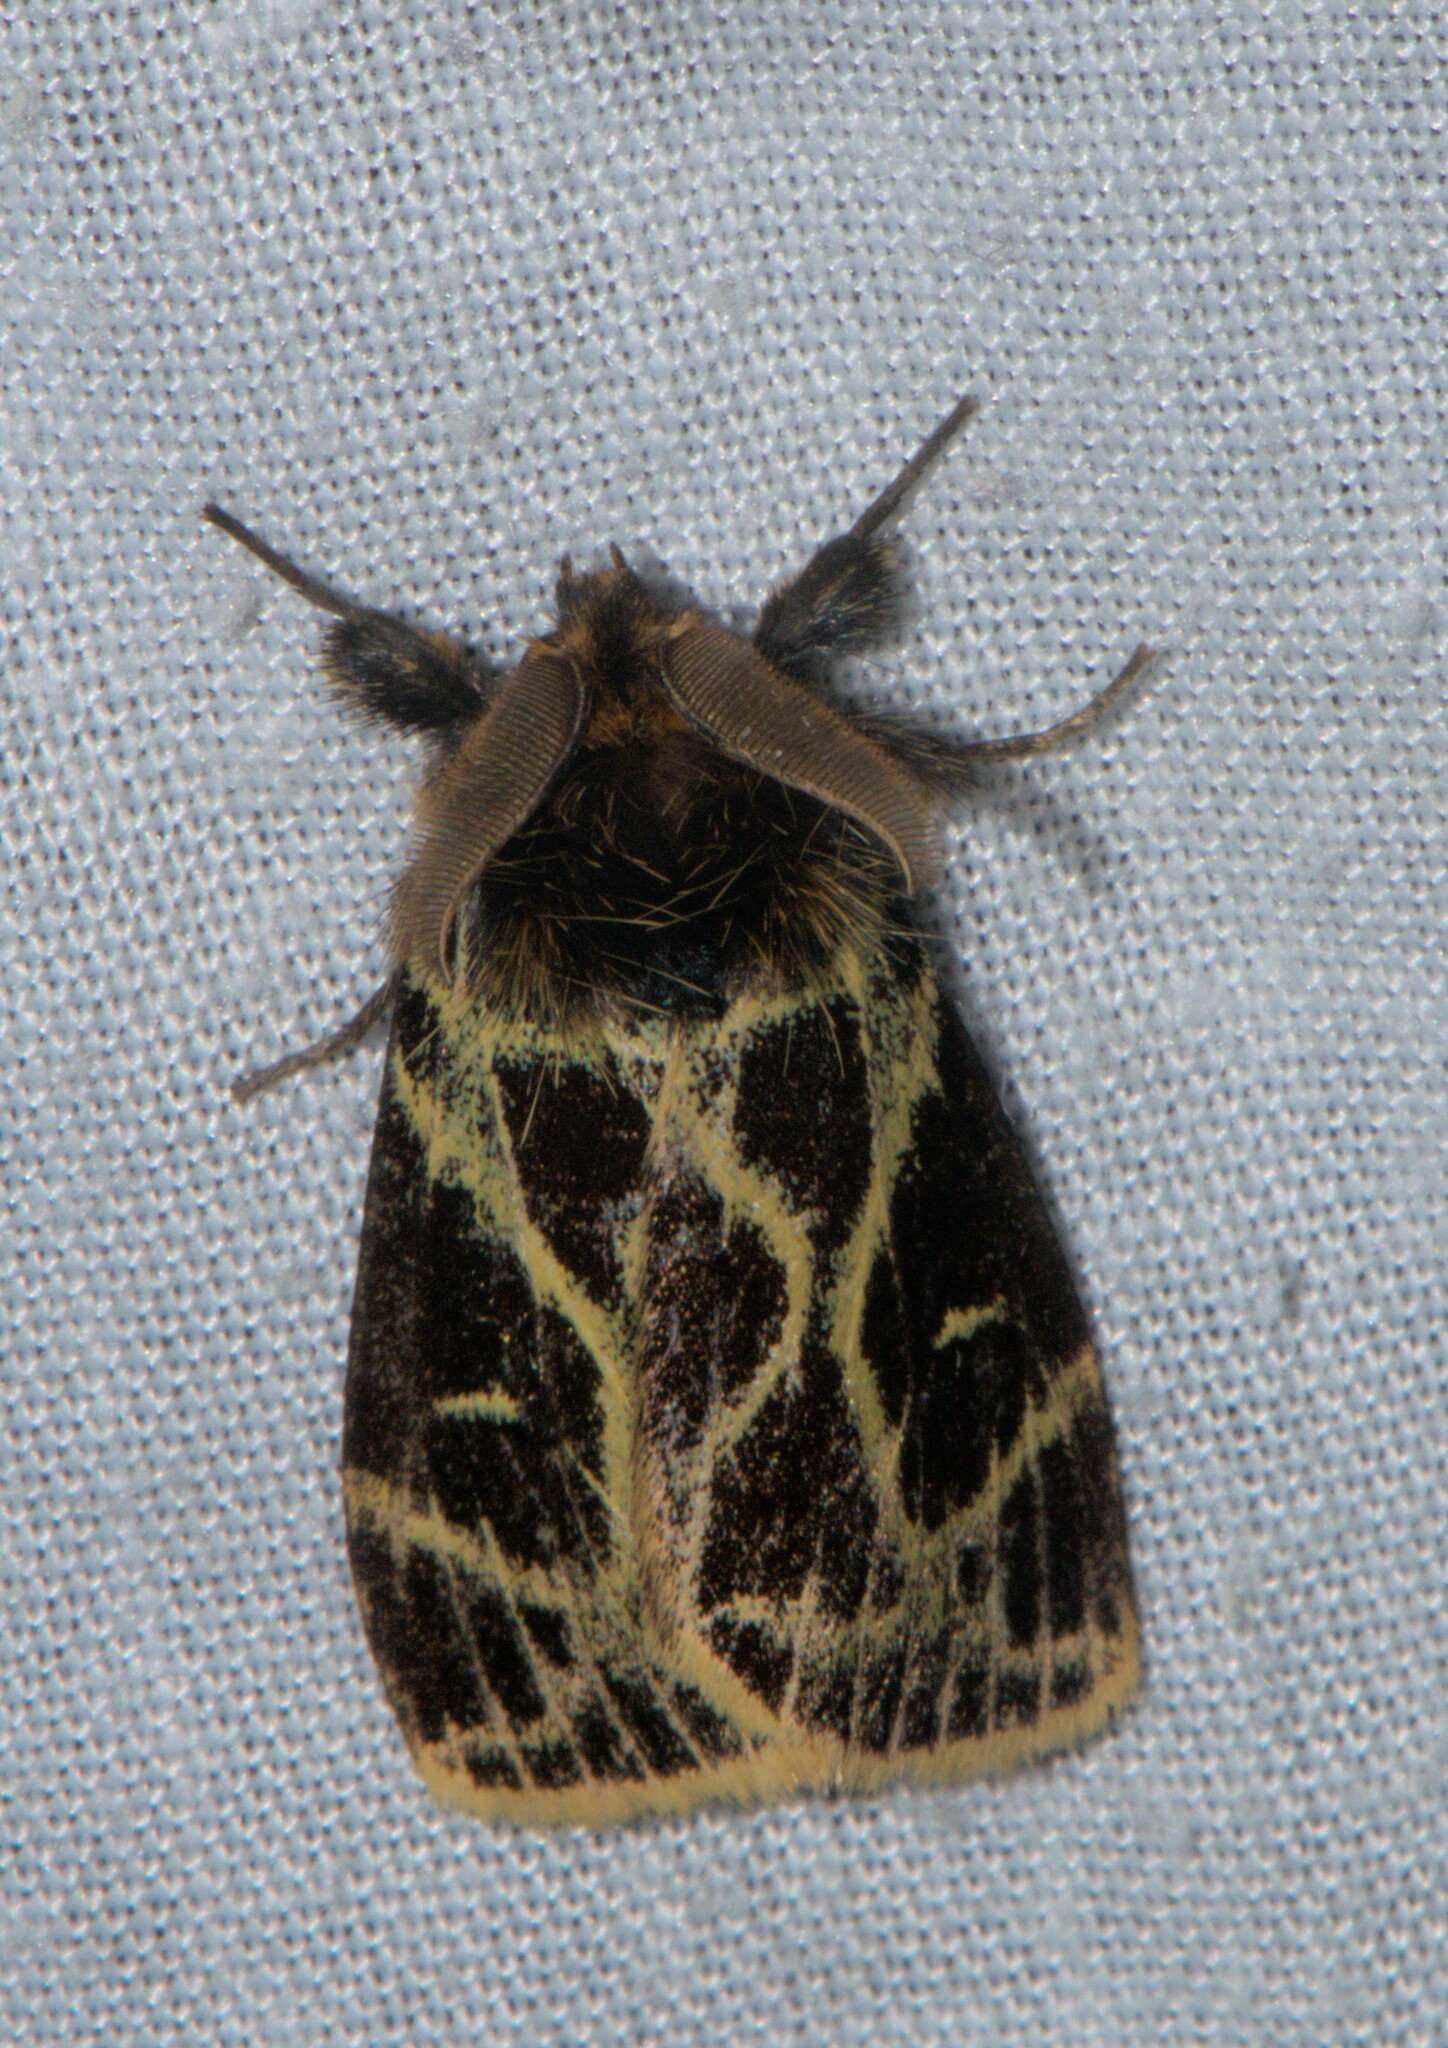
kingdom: Animalia
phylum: Arthropoda
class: Insecta
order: Lepidoptera
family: Erebidae
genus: Pida
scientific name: Pida
